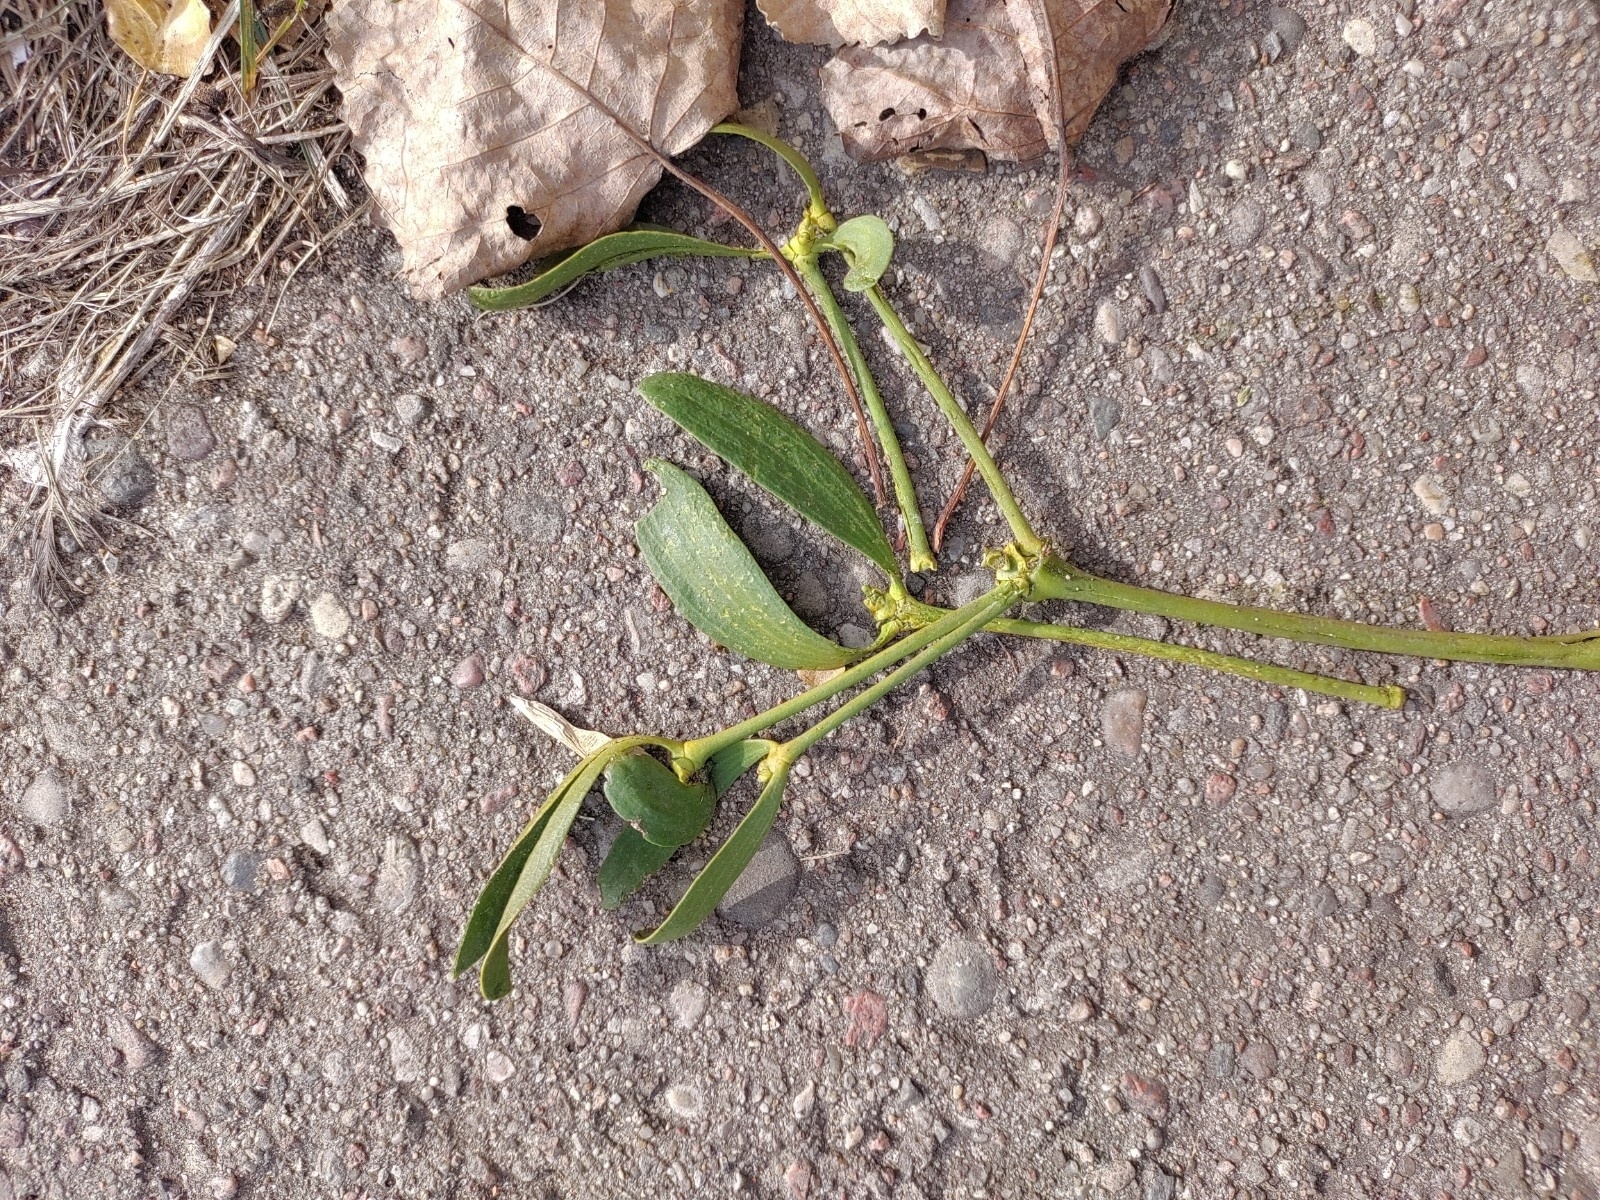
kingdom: Plantae
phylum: Tracheophyta
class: Magnoliopsida
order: Santalales
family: Viscaceae
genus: Viscum
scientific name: Viscum album
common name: Mistletoe
